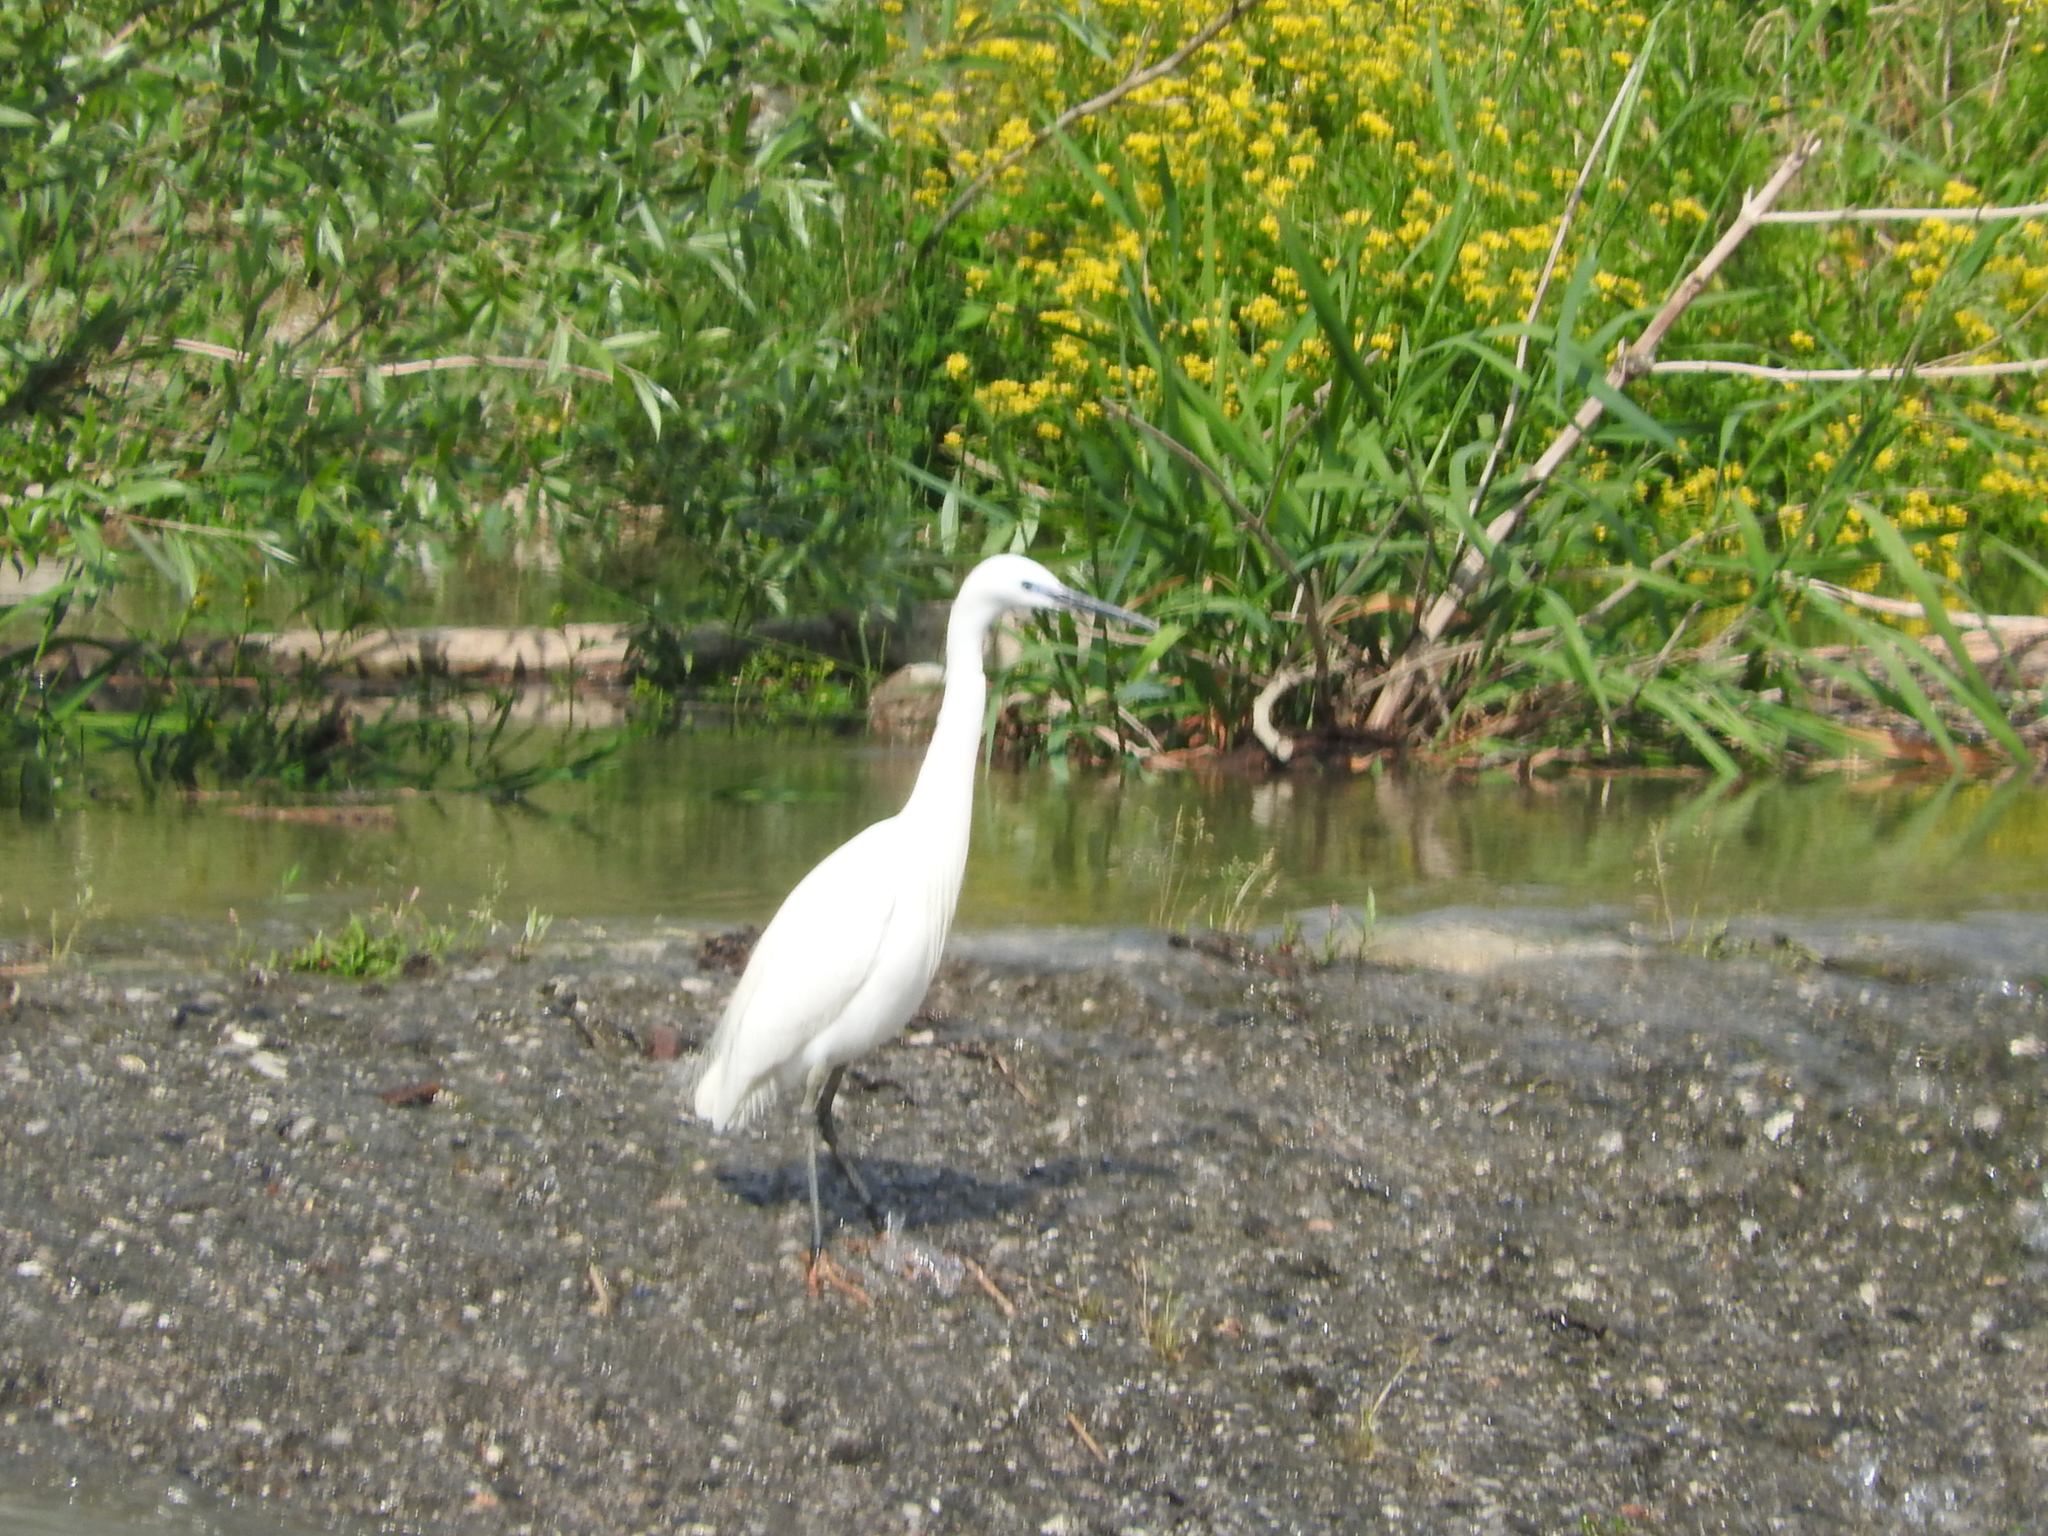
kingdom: Animalia
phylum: Chordata
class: Aves
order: Pelecaniformes
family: Ardeidae
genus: Egretta
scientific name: Egretta garzetta
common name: Little egret
